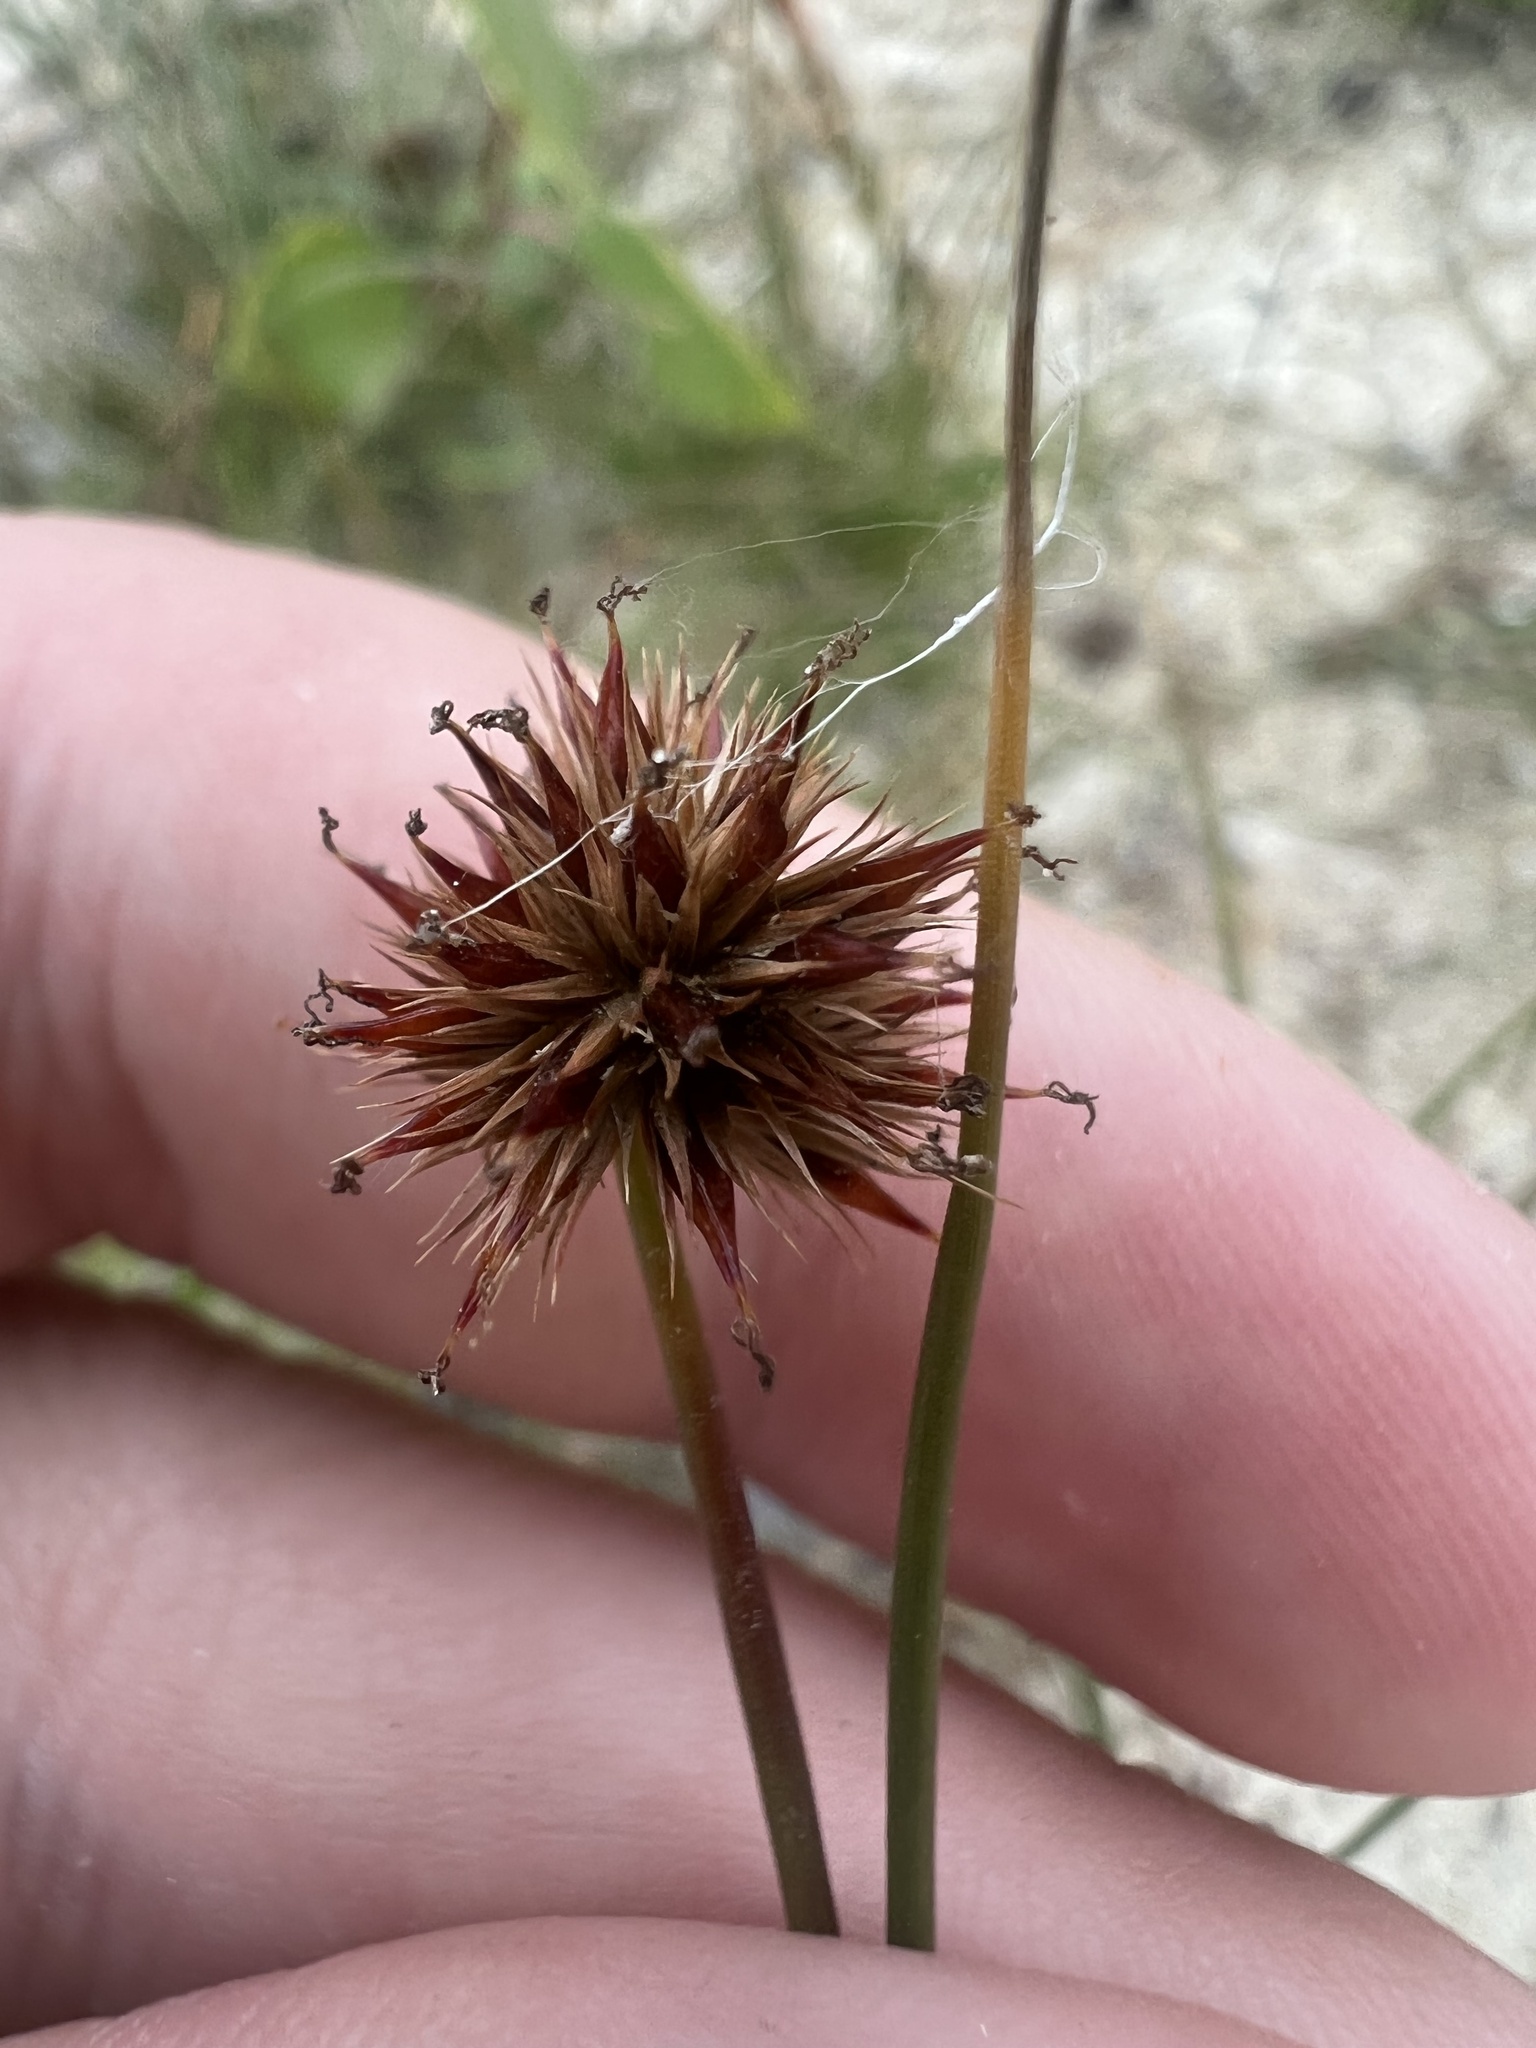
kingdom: Plantae
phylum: Tracheophyta
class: Liliopsida
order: Poales
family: Juncaceae
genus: Juncus
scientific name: Juncus torreyi
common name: Torrey's rush
